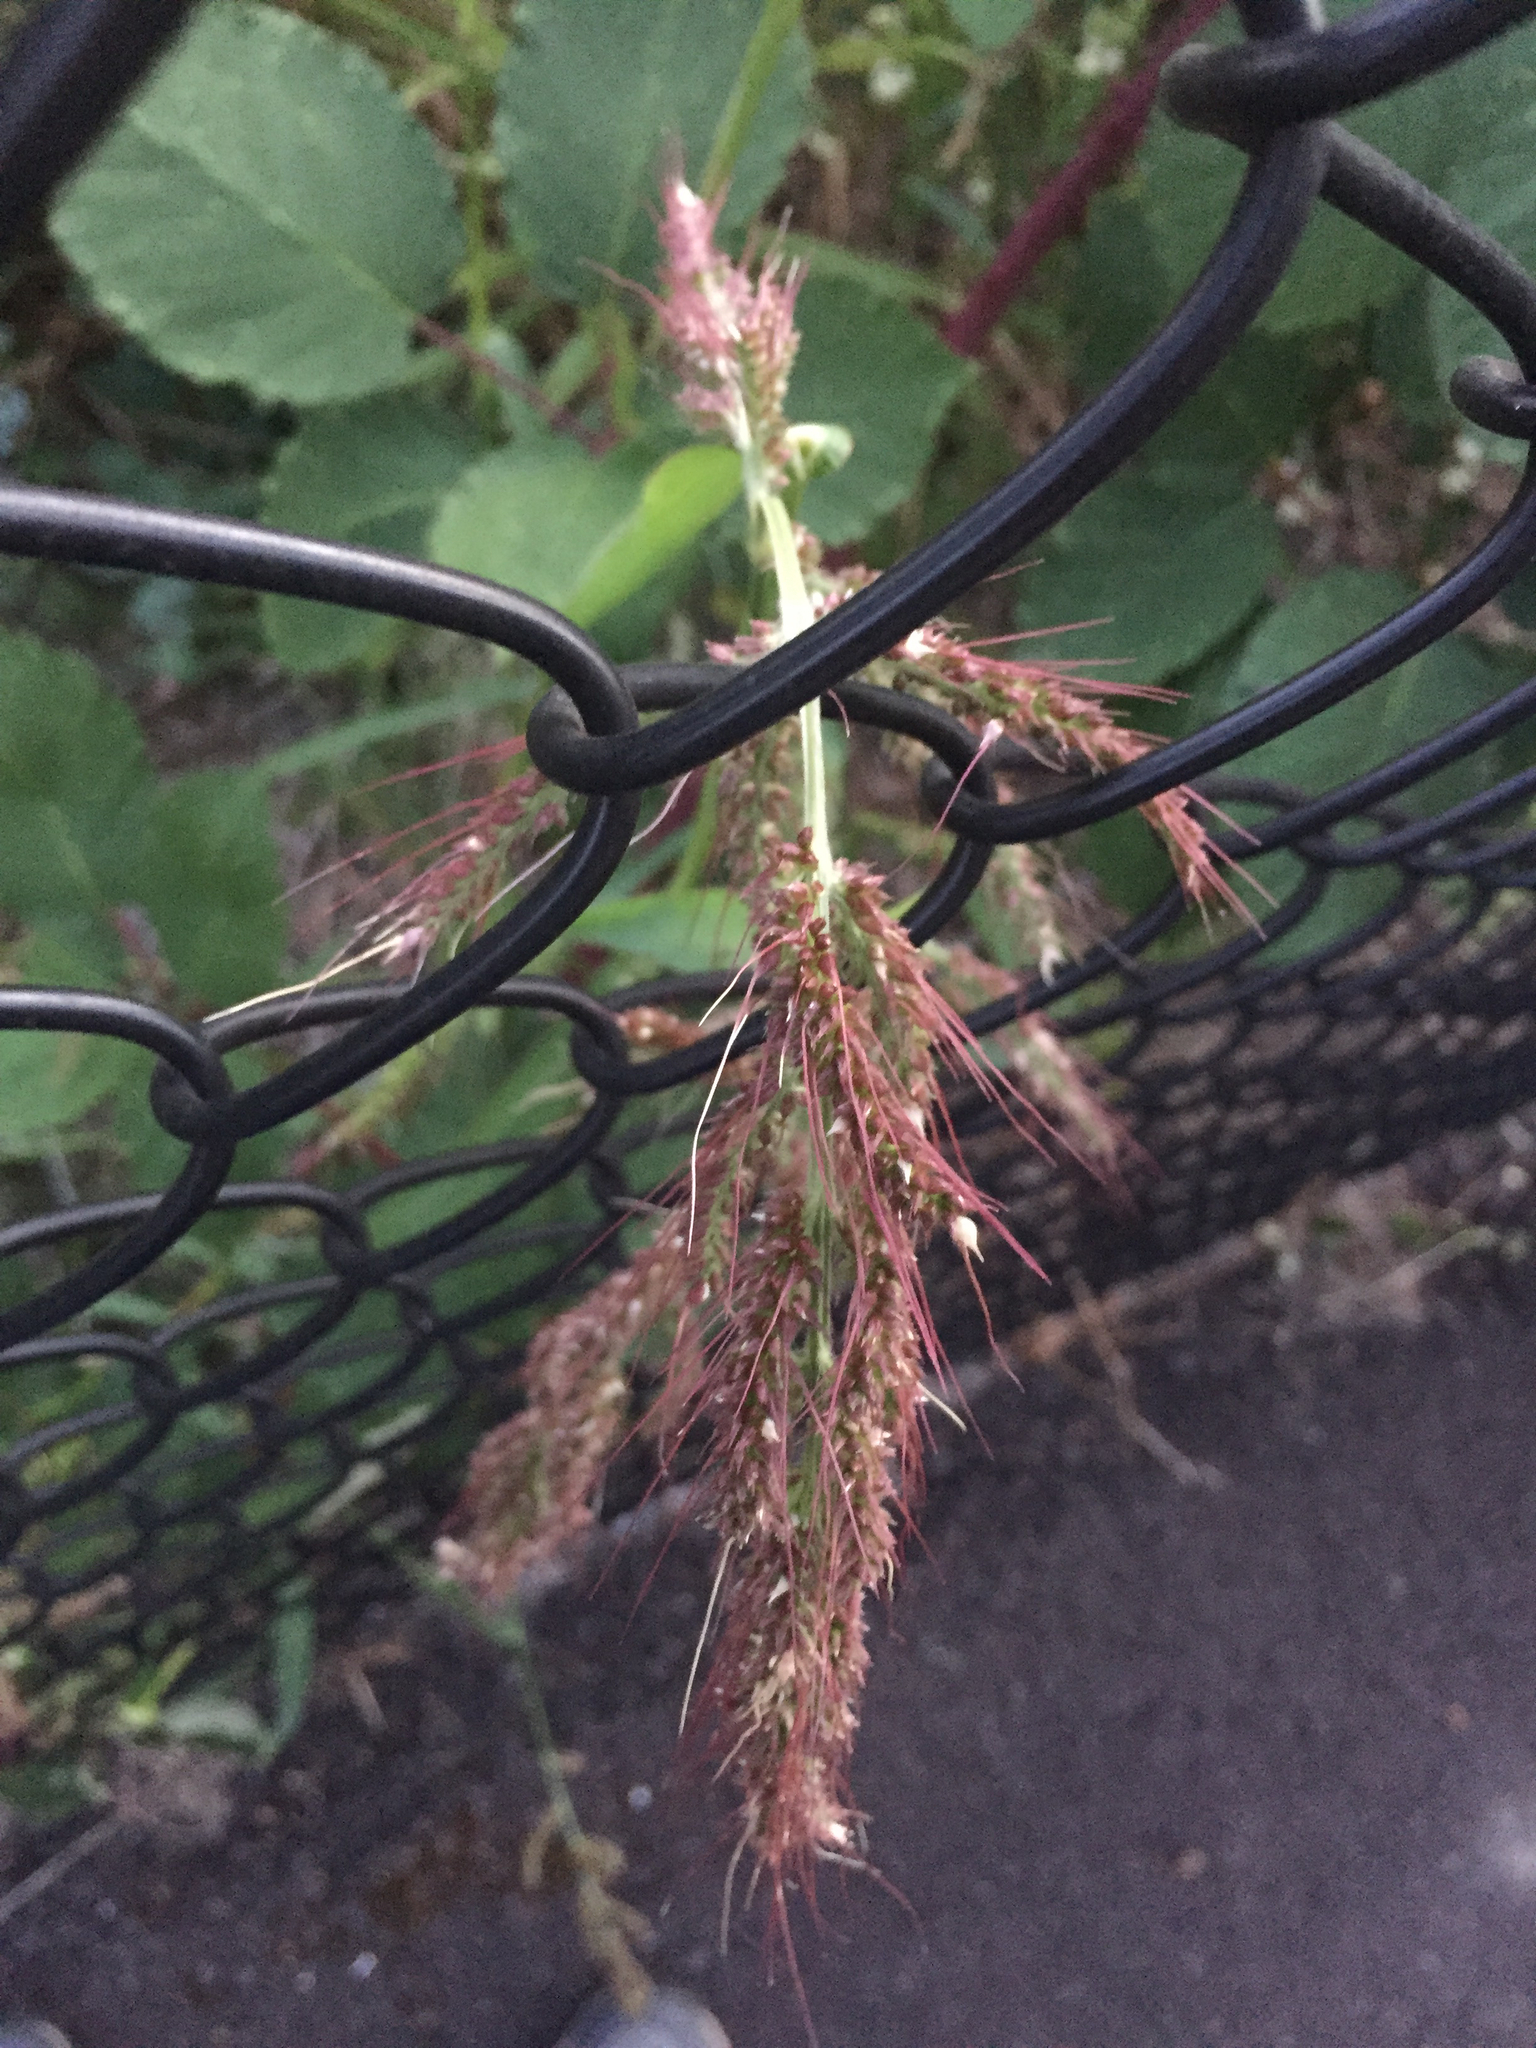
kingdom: Plantae
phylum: Tracheophyta
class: Liliopsida
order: Poales
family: Poaceae
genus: Echinochloa
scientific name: Echinochloa crus-galli
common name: Cockspur
